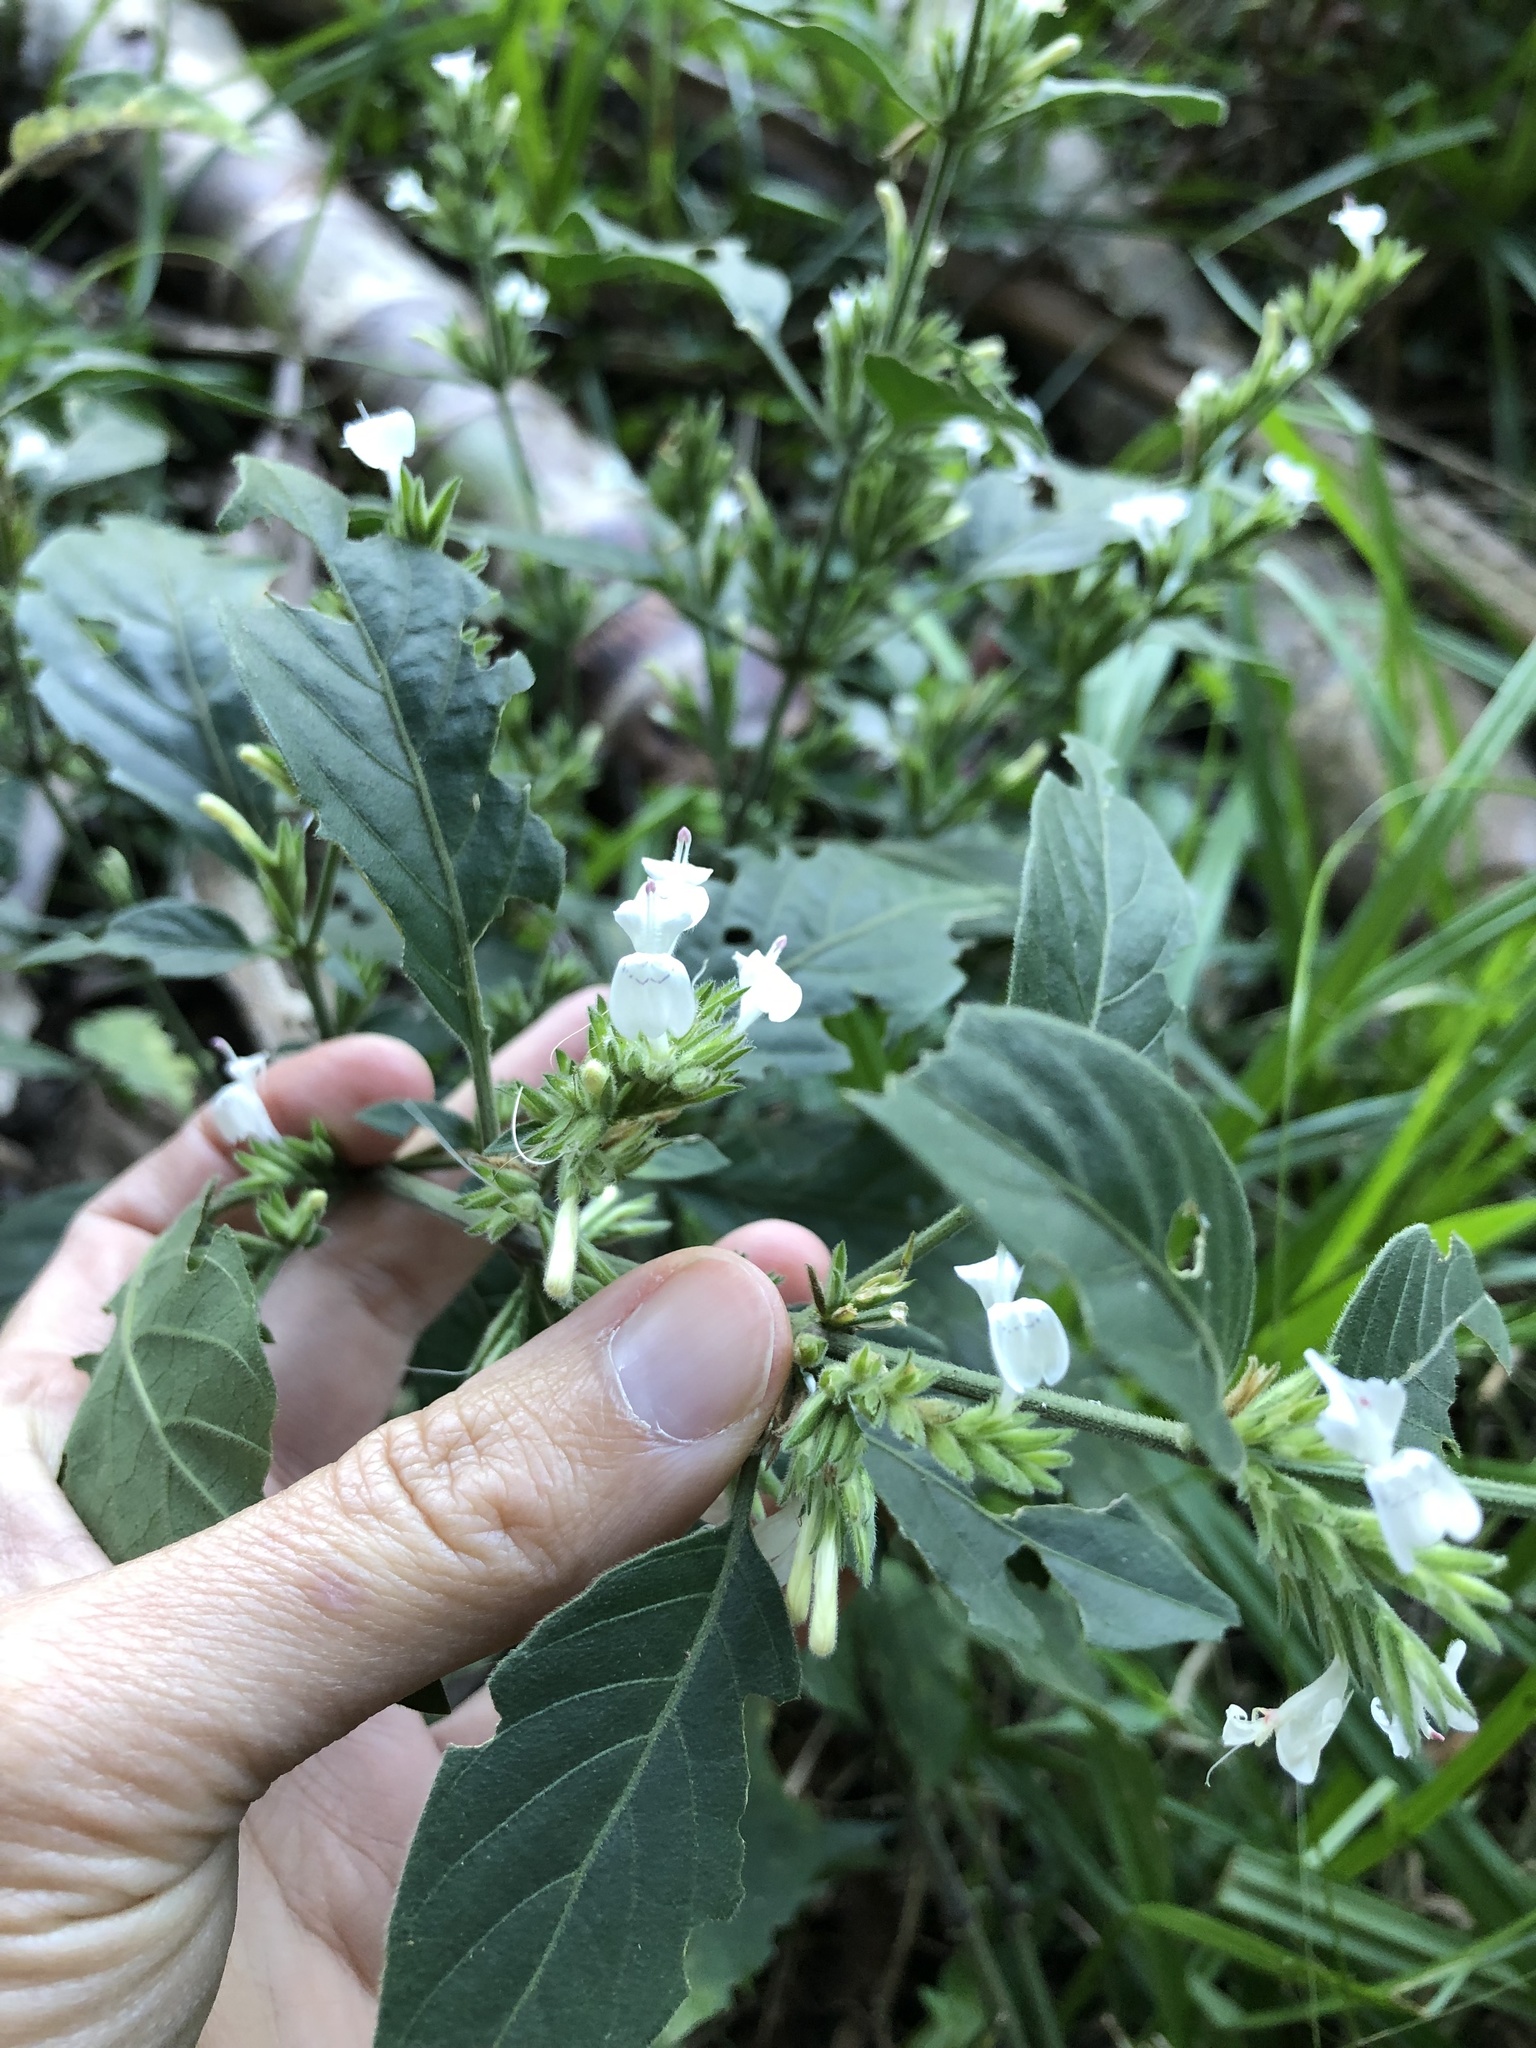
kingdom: Plantae
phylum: Tracheophyta
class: Magnoliopsida
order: Lamiales
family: Acanthaceae
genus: Hypoestes
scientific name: Hypoestes forskaolii
